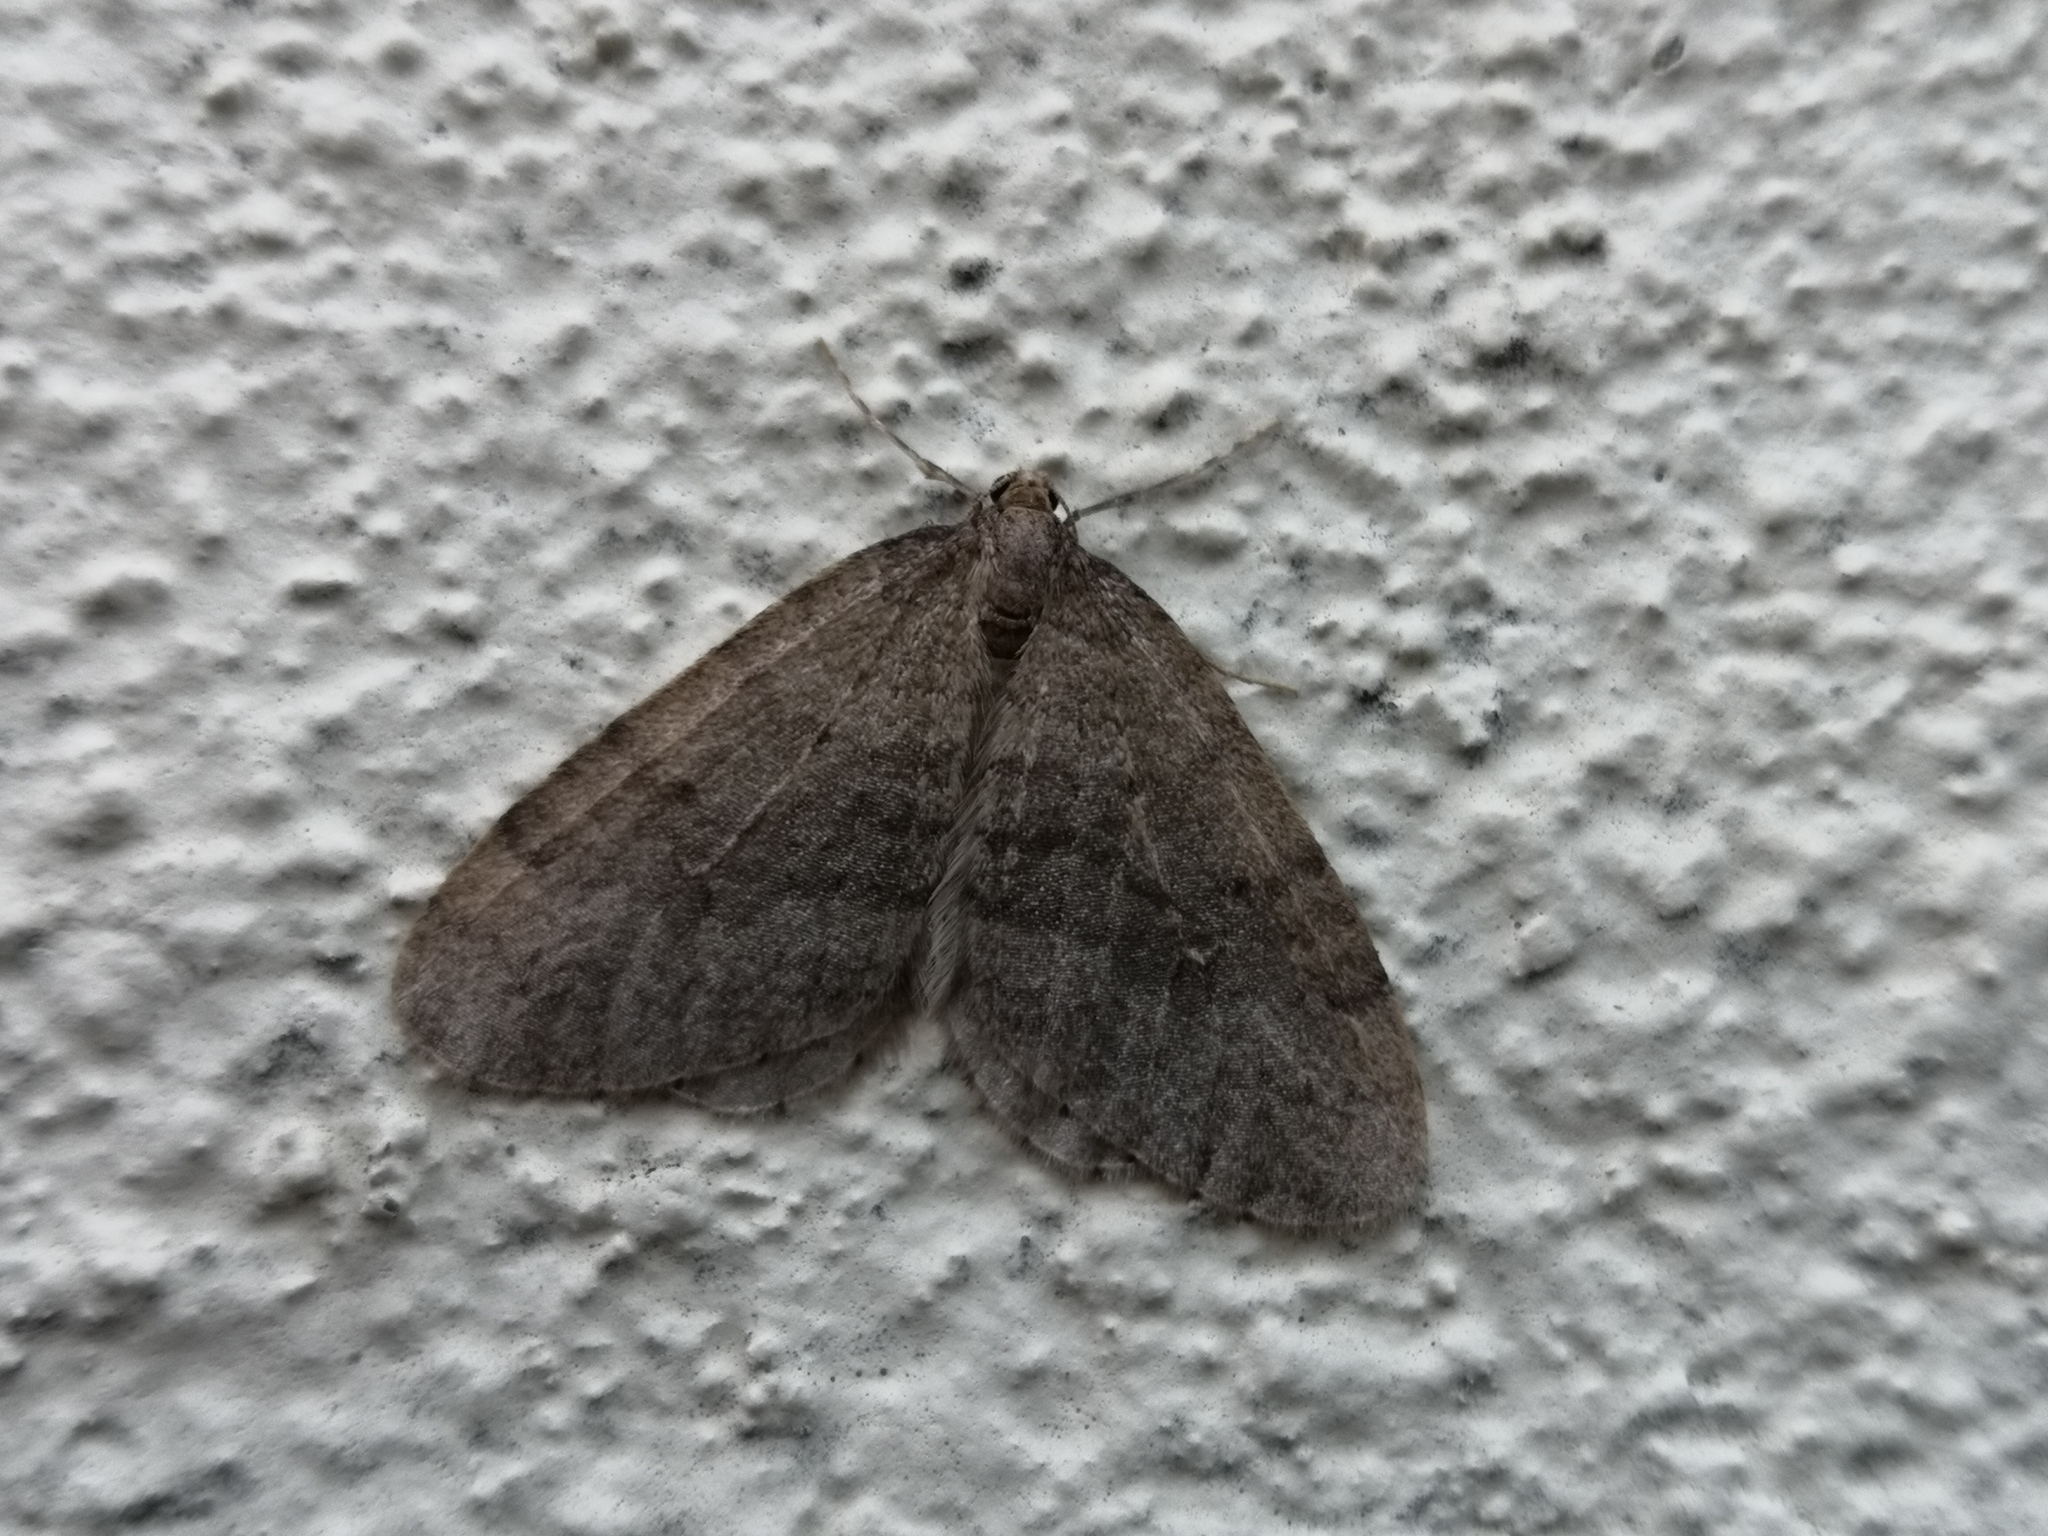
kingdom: Animalia
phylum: Arthropoda
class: Insecta
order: Lepidoptera
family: Geometridae
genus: Operophtera
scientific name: Operophtera brumata
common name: Winter moth
